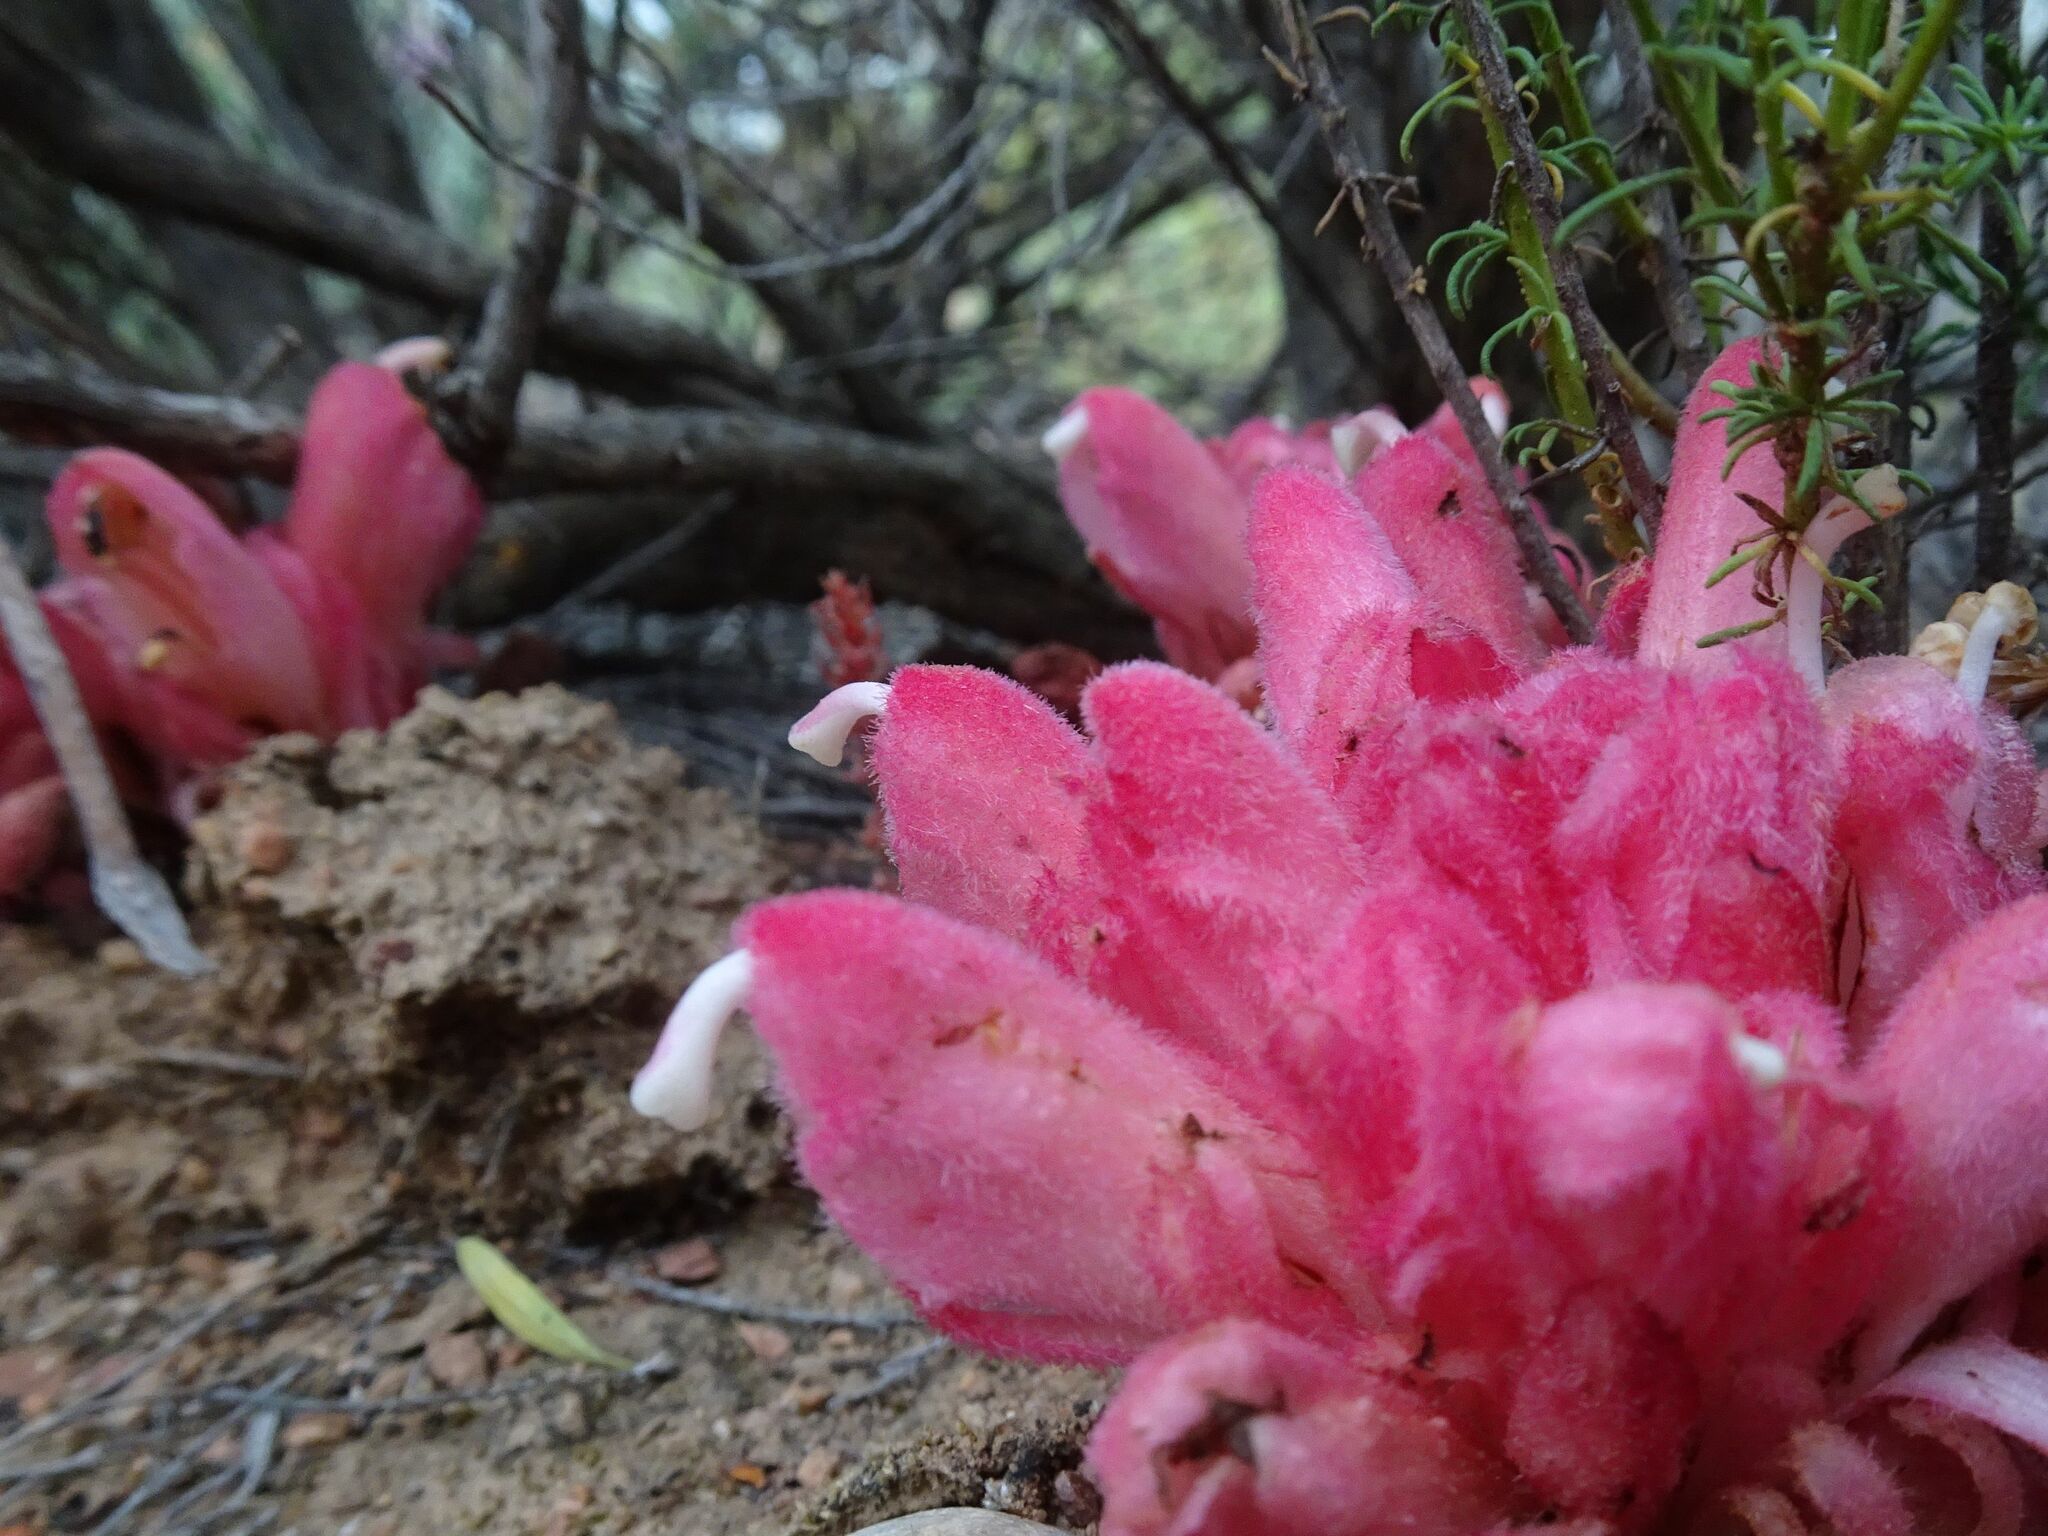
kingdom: Plantae
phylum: Tracheophyta
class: Magnoliopsida
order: Lamiales
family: Orobanchaceae
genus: Hyobanche
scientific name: Hyobanche sanguinea
